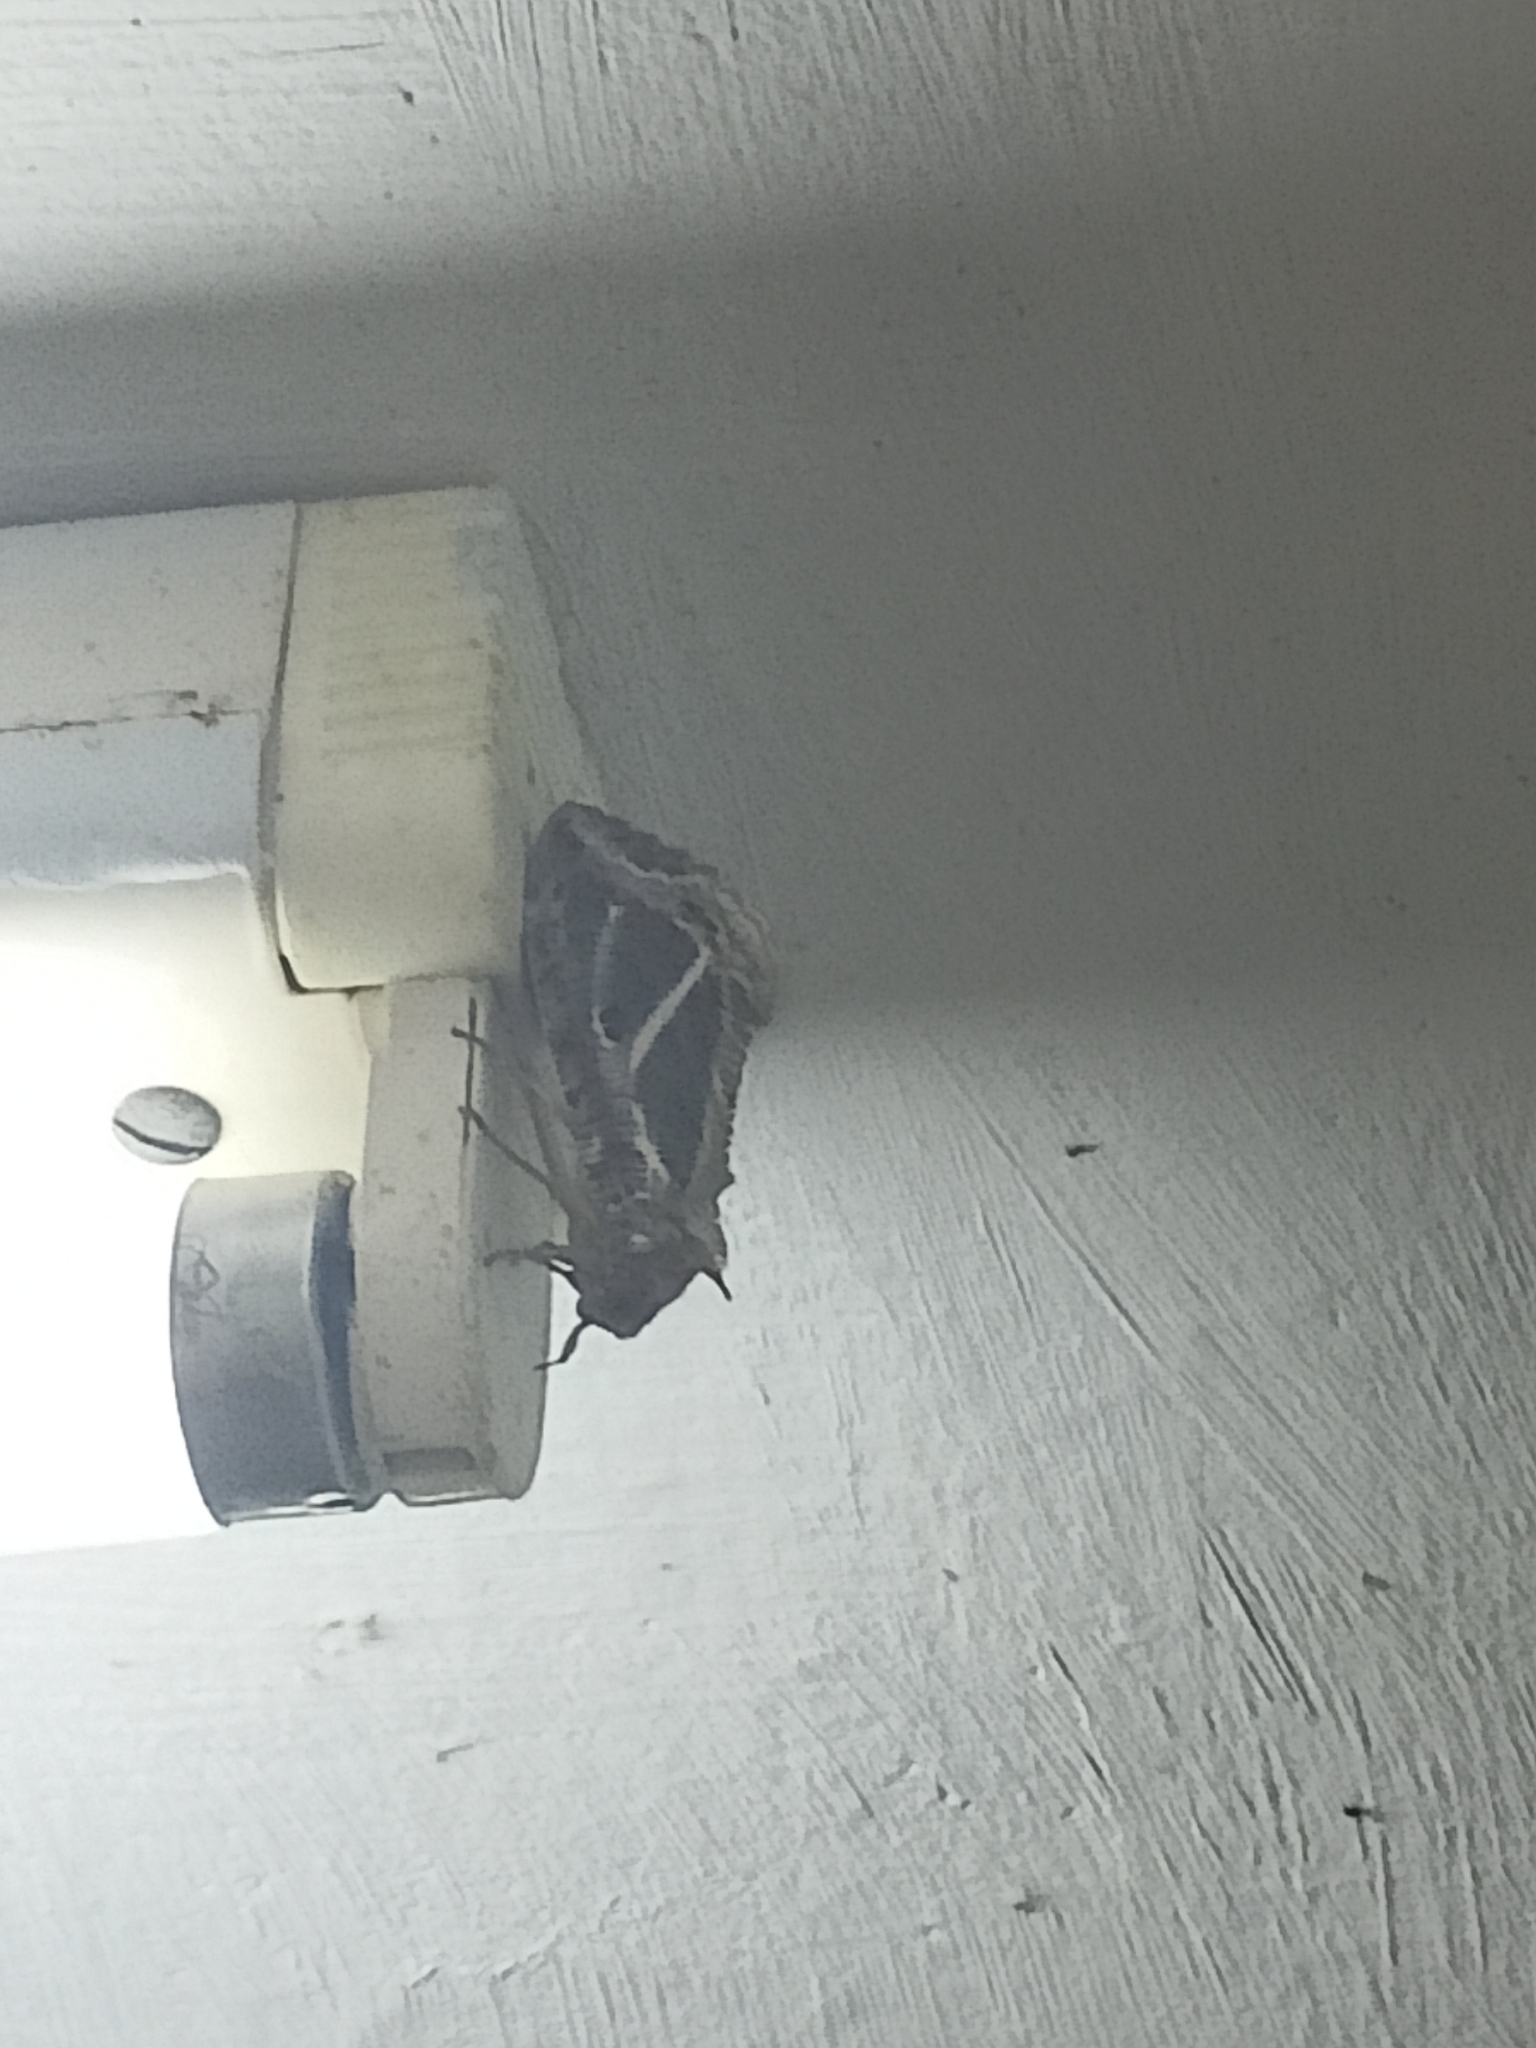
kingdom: Animalia
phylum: Arthropoda
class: Insecta
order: Lepidoptera
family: Erebidae
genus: Eudocima
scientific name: Eudocima materna
